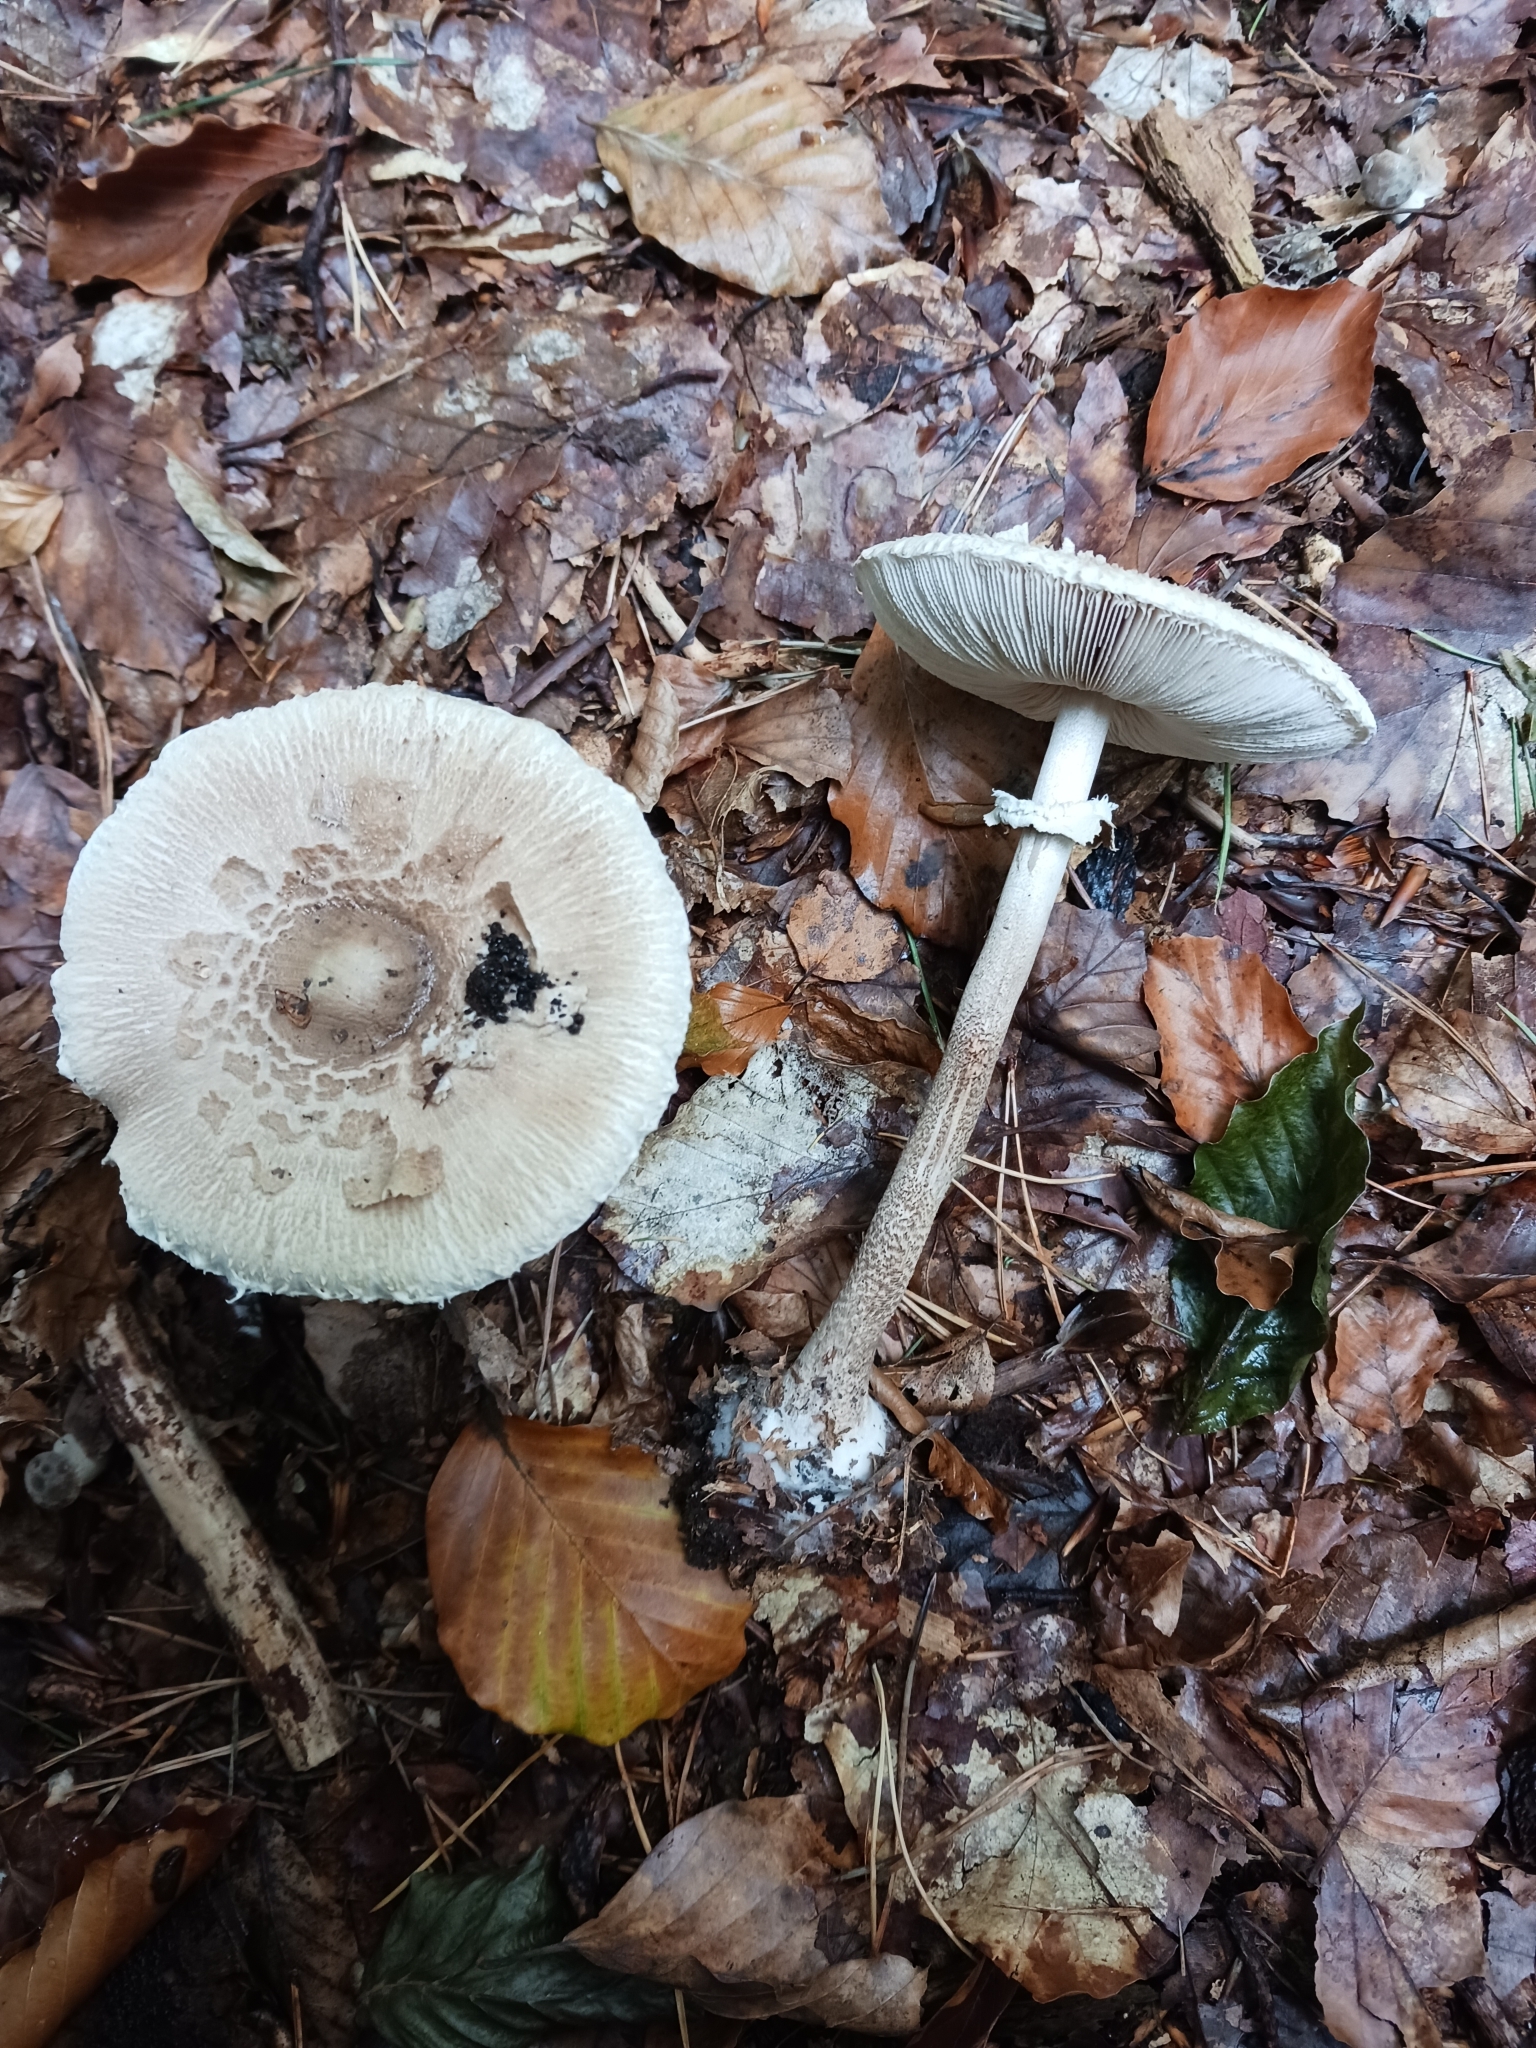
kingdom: Fungi
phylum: Basidiomycota
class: Agaricomycetes
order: Agaricales
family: Agaricaceae
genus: Macrolepiota
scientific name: Macrolepiota fuliginosa
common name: Sooty parasol
